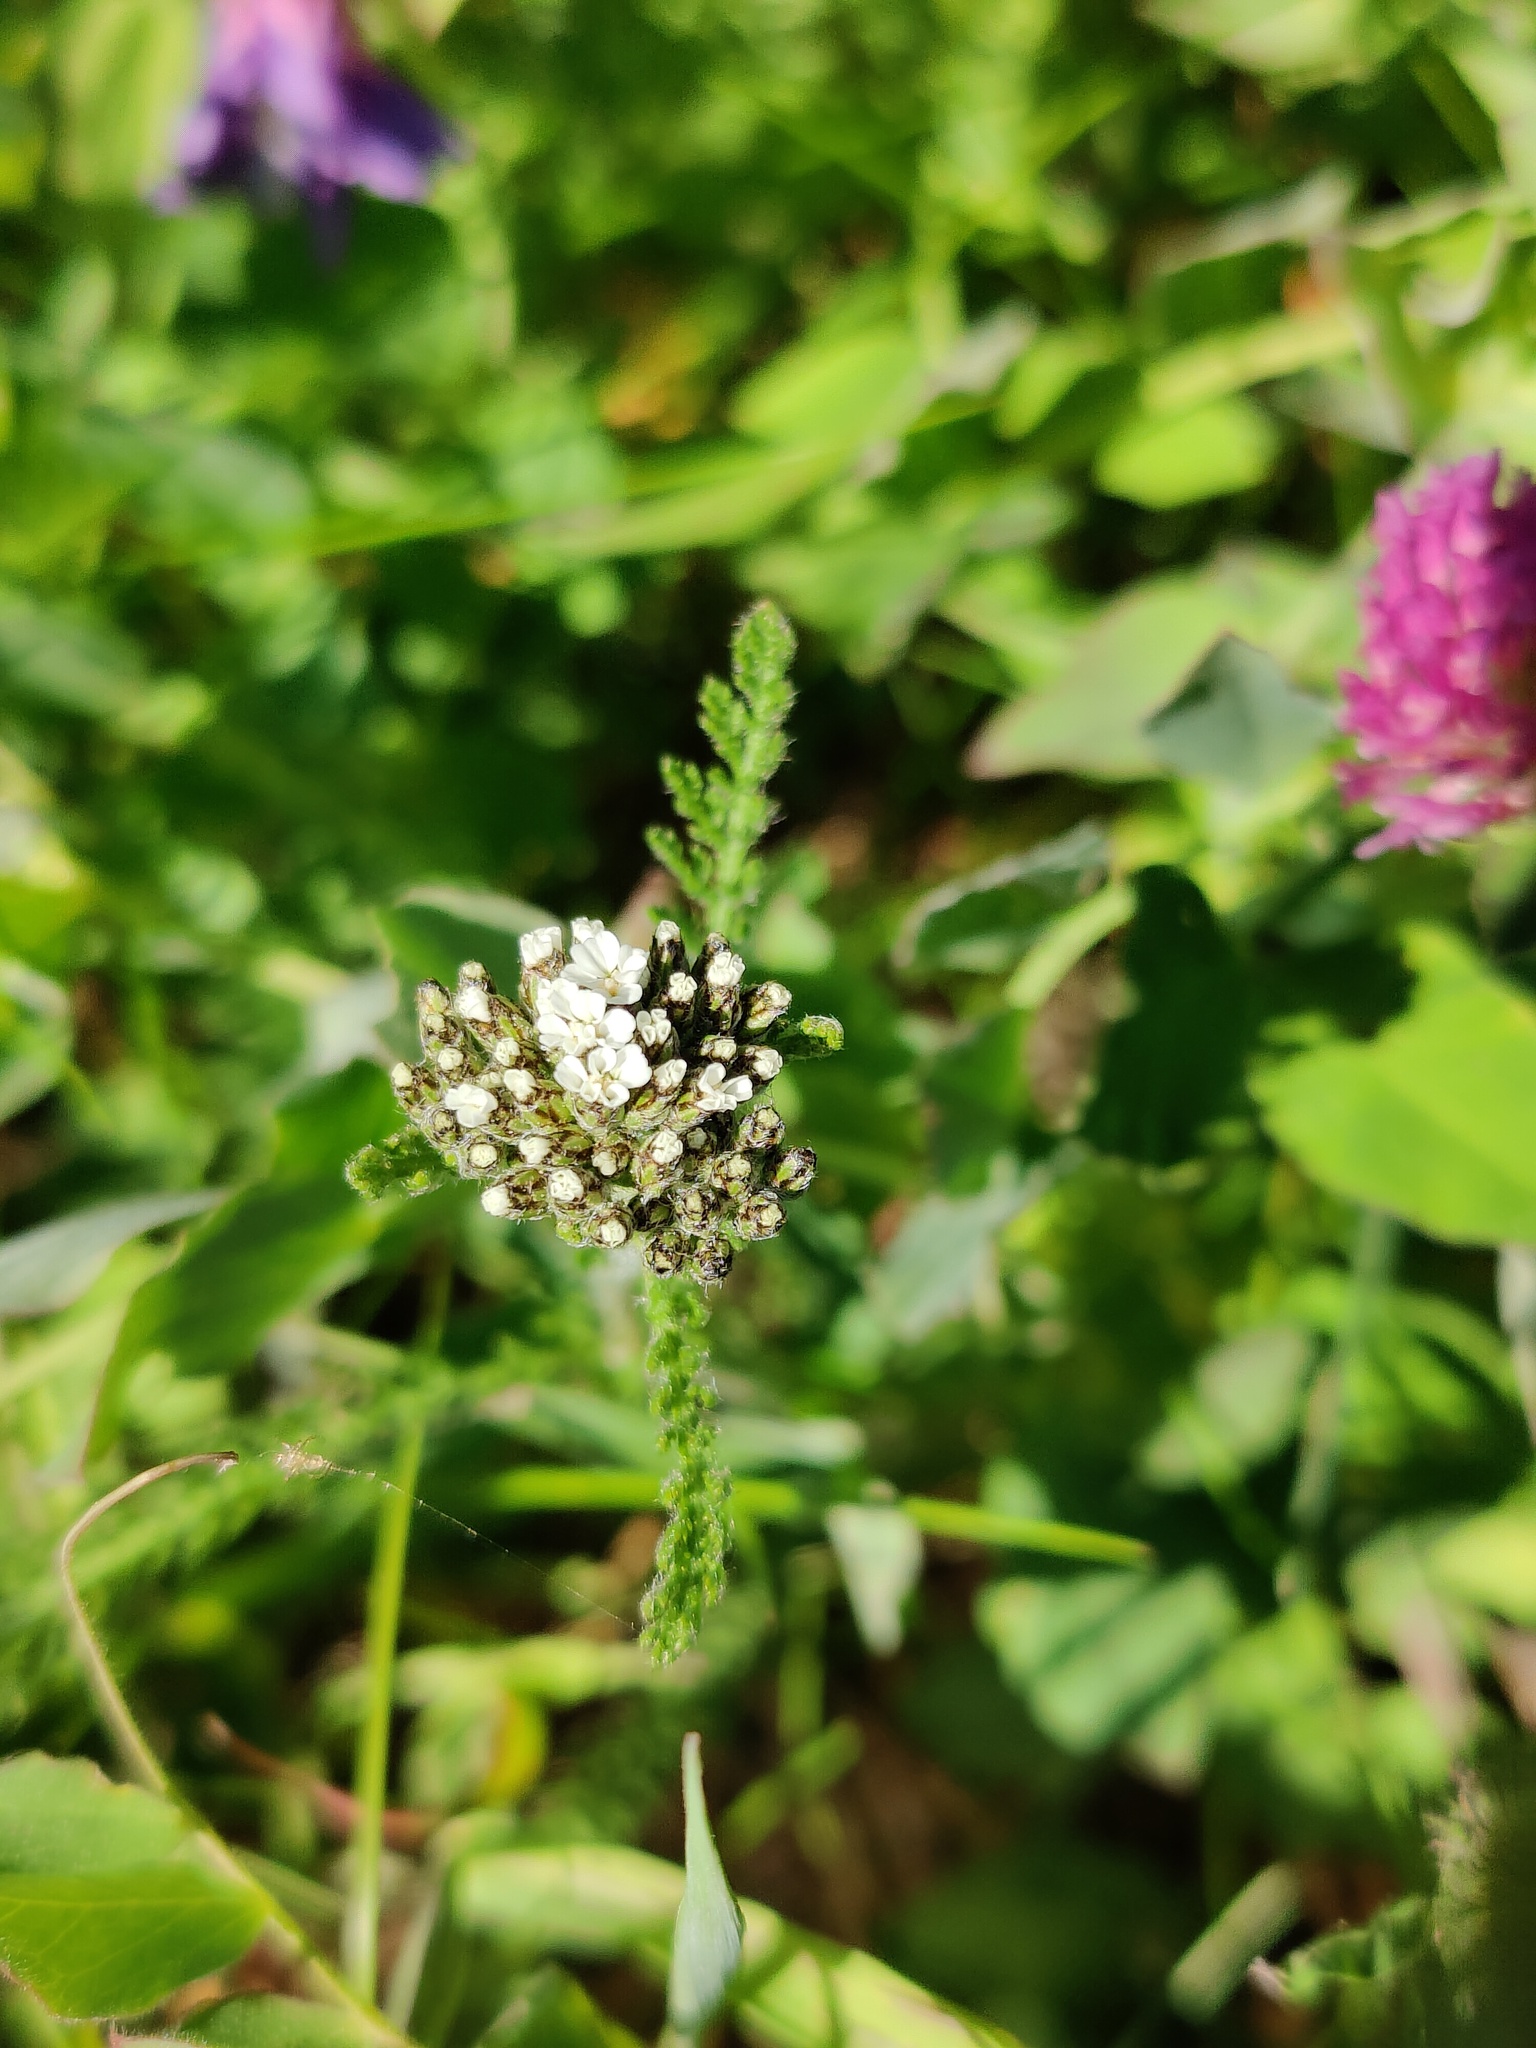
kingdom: Plantae
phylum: Tracheophyta
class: Magnoliopsida
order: Asterales
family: Asteraceae
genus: Achillea
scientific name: Achillea apiculata
